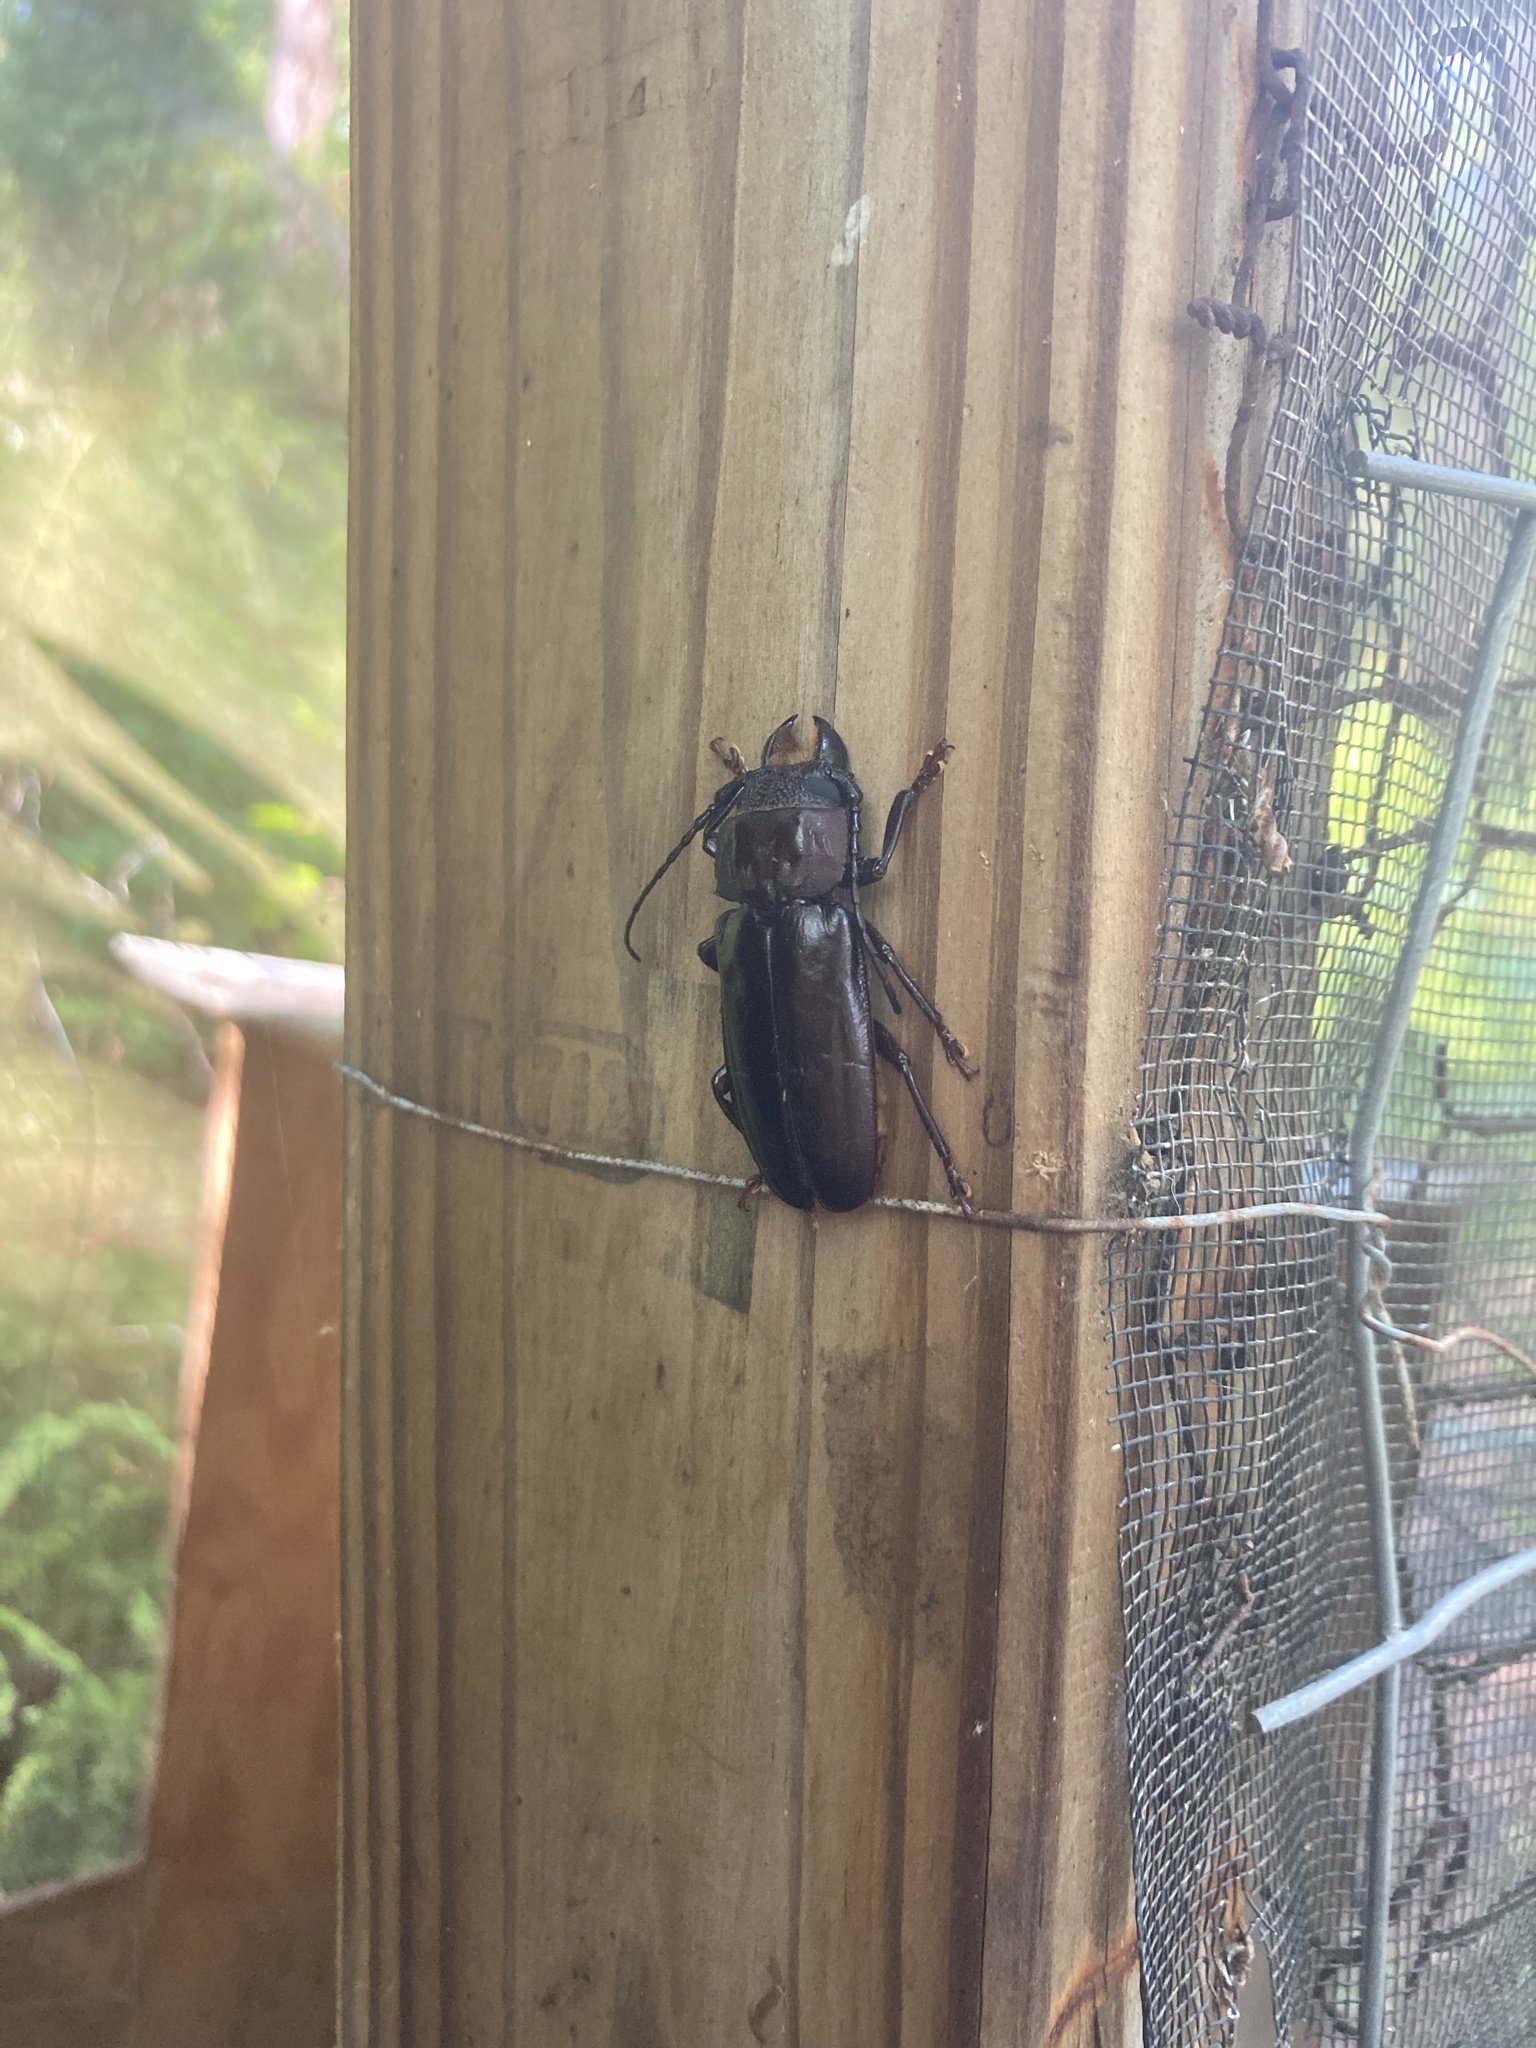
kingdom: Animalia
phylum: Arthropoda
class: Insecta
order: Coleoptera
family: Cerambycidae
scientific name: Cerambycidae
